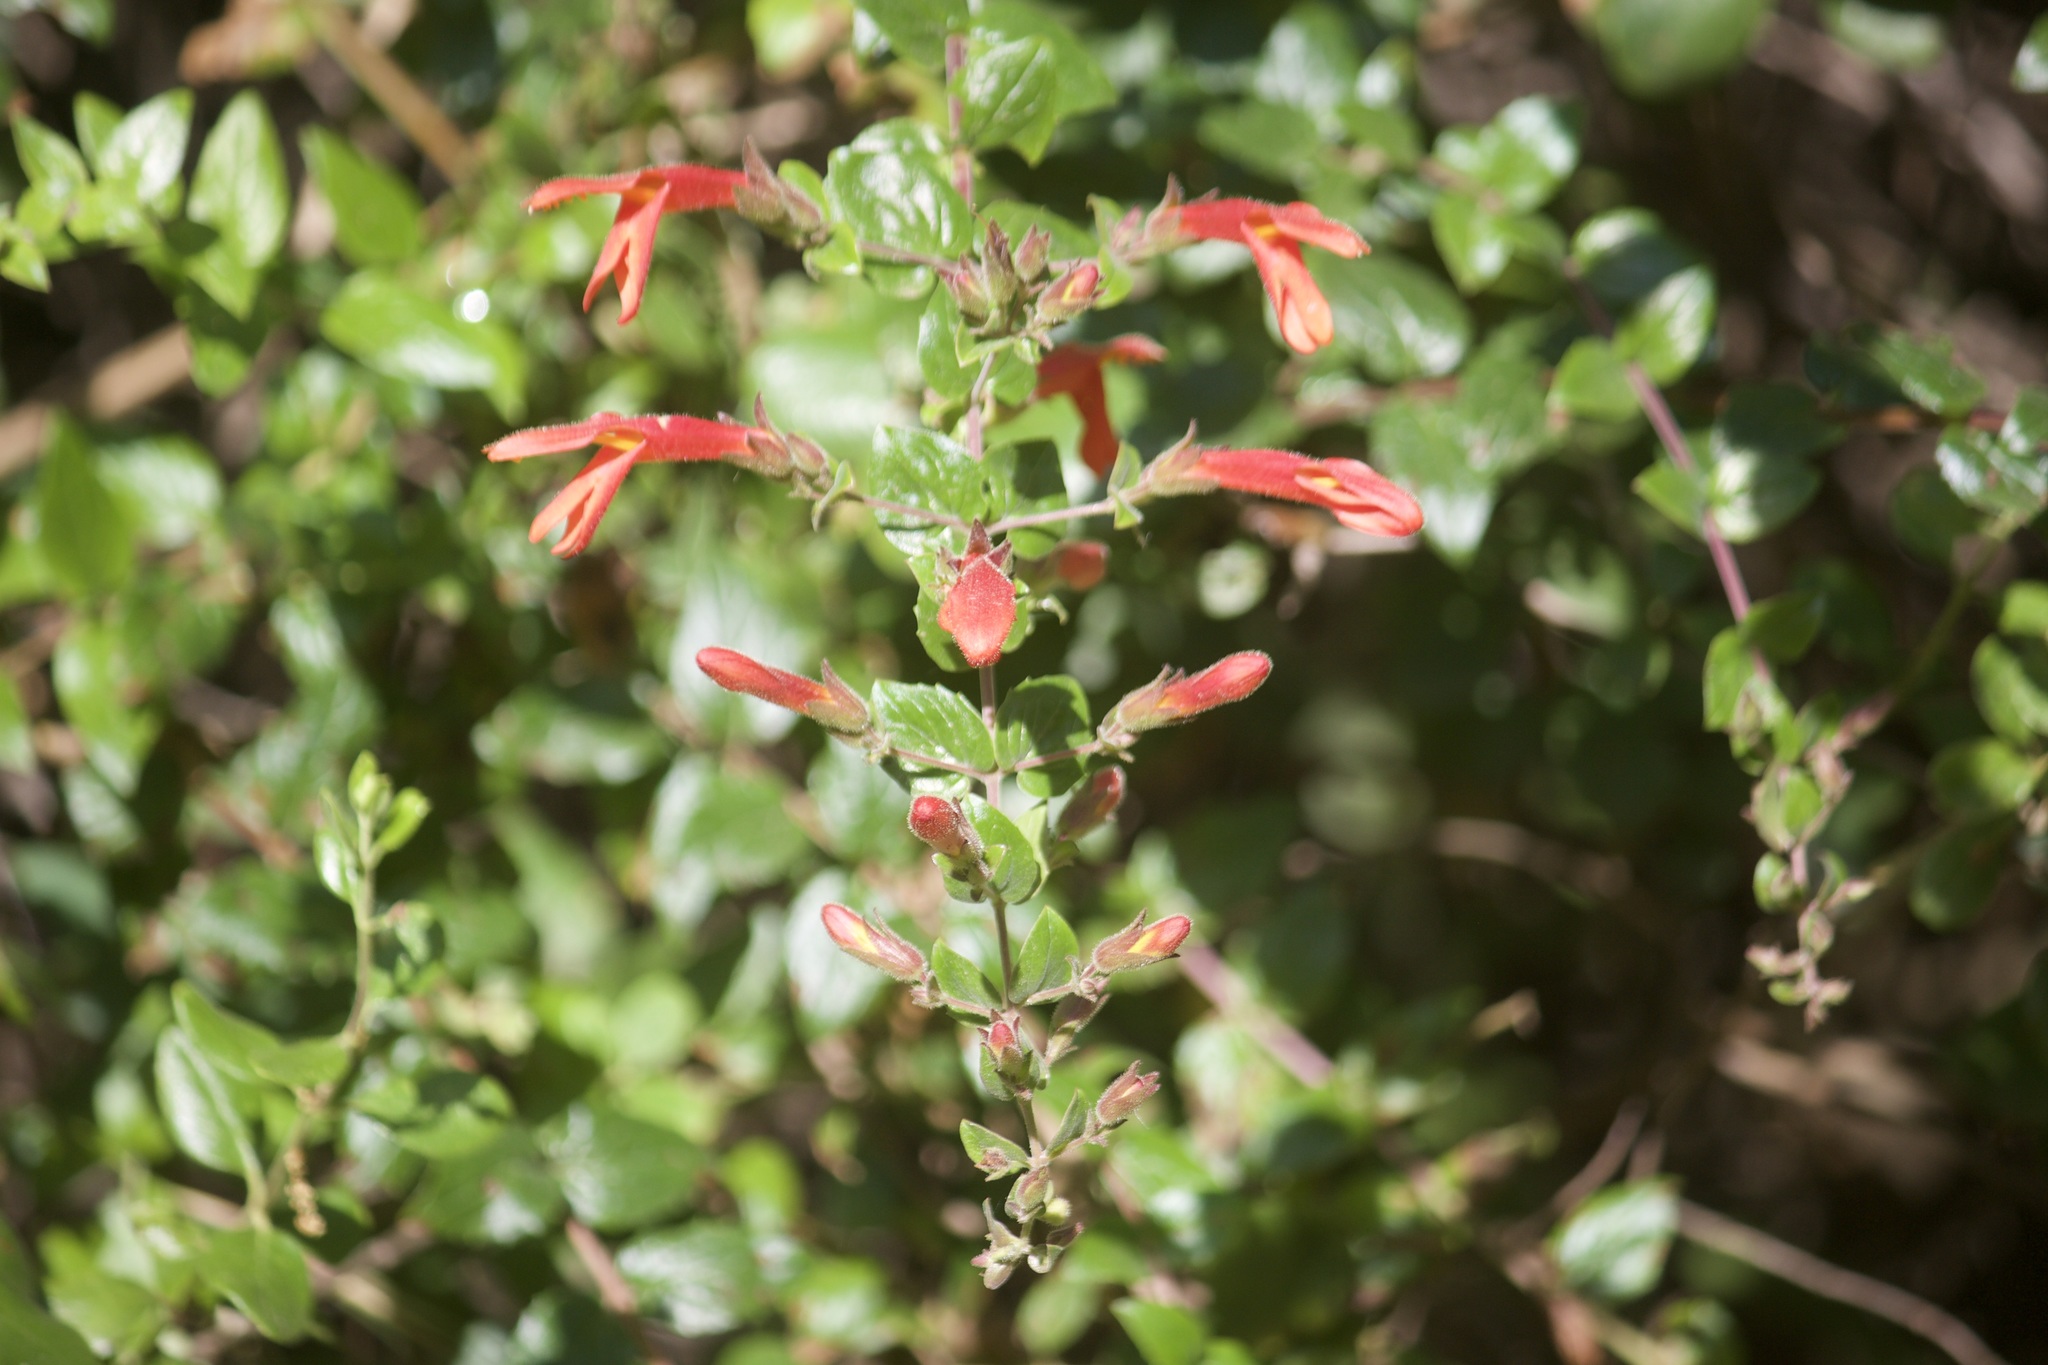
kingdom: Plantae
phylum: Tracheophyta
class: Magnoliopsida
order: Lamiales
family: Plantaginaceae
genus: Keckiella
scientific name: Keckiella cordifolia
